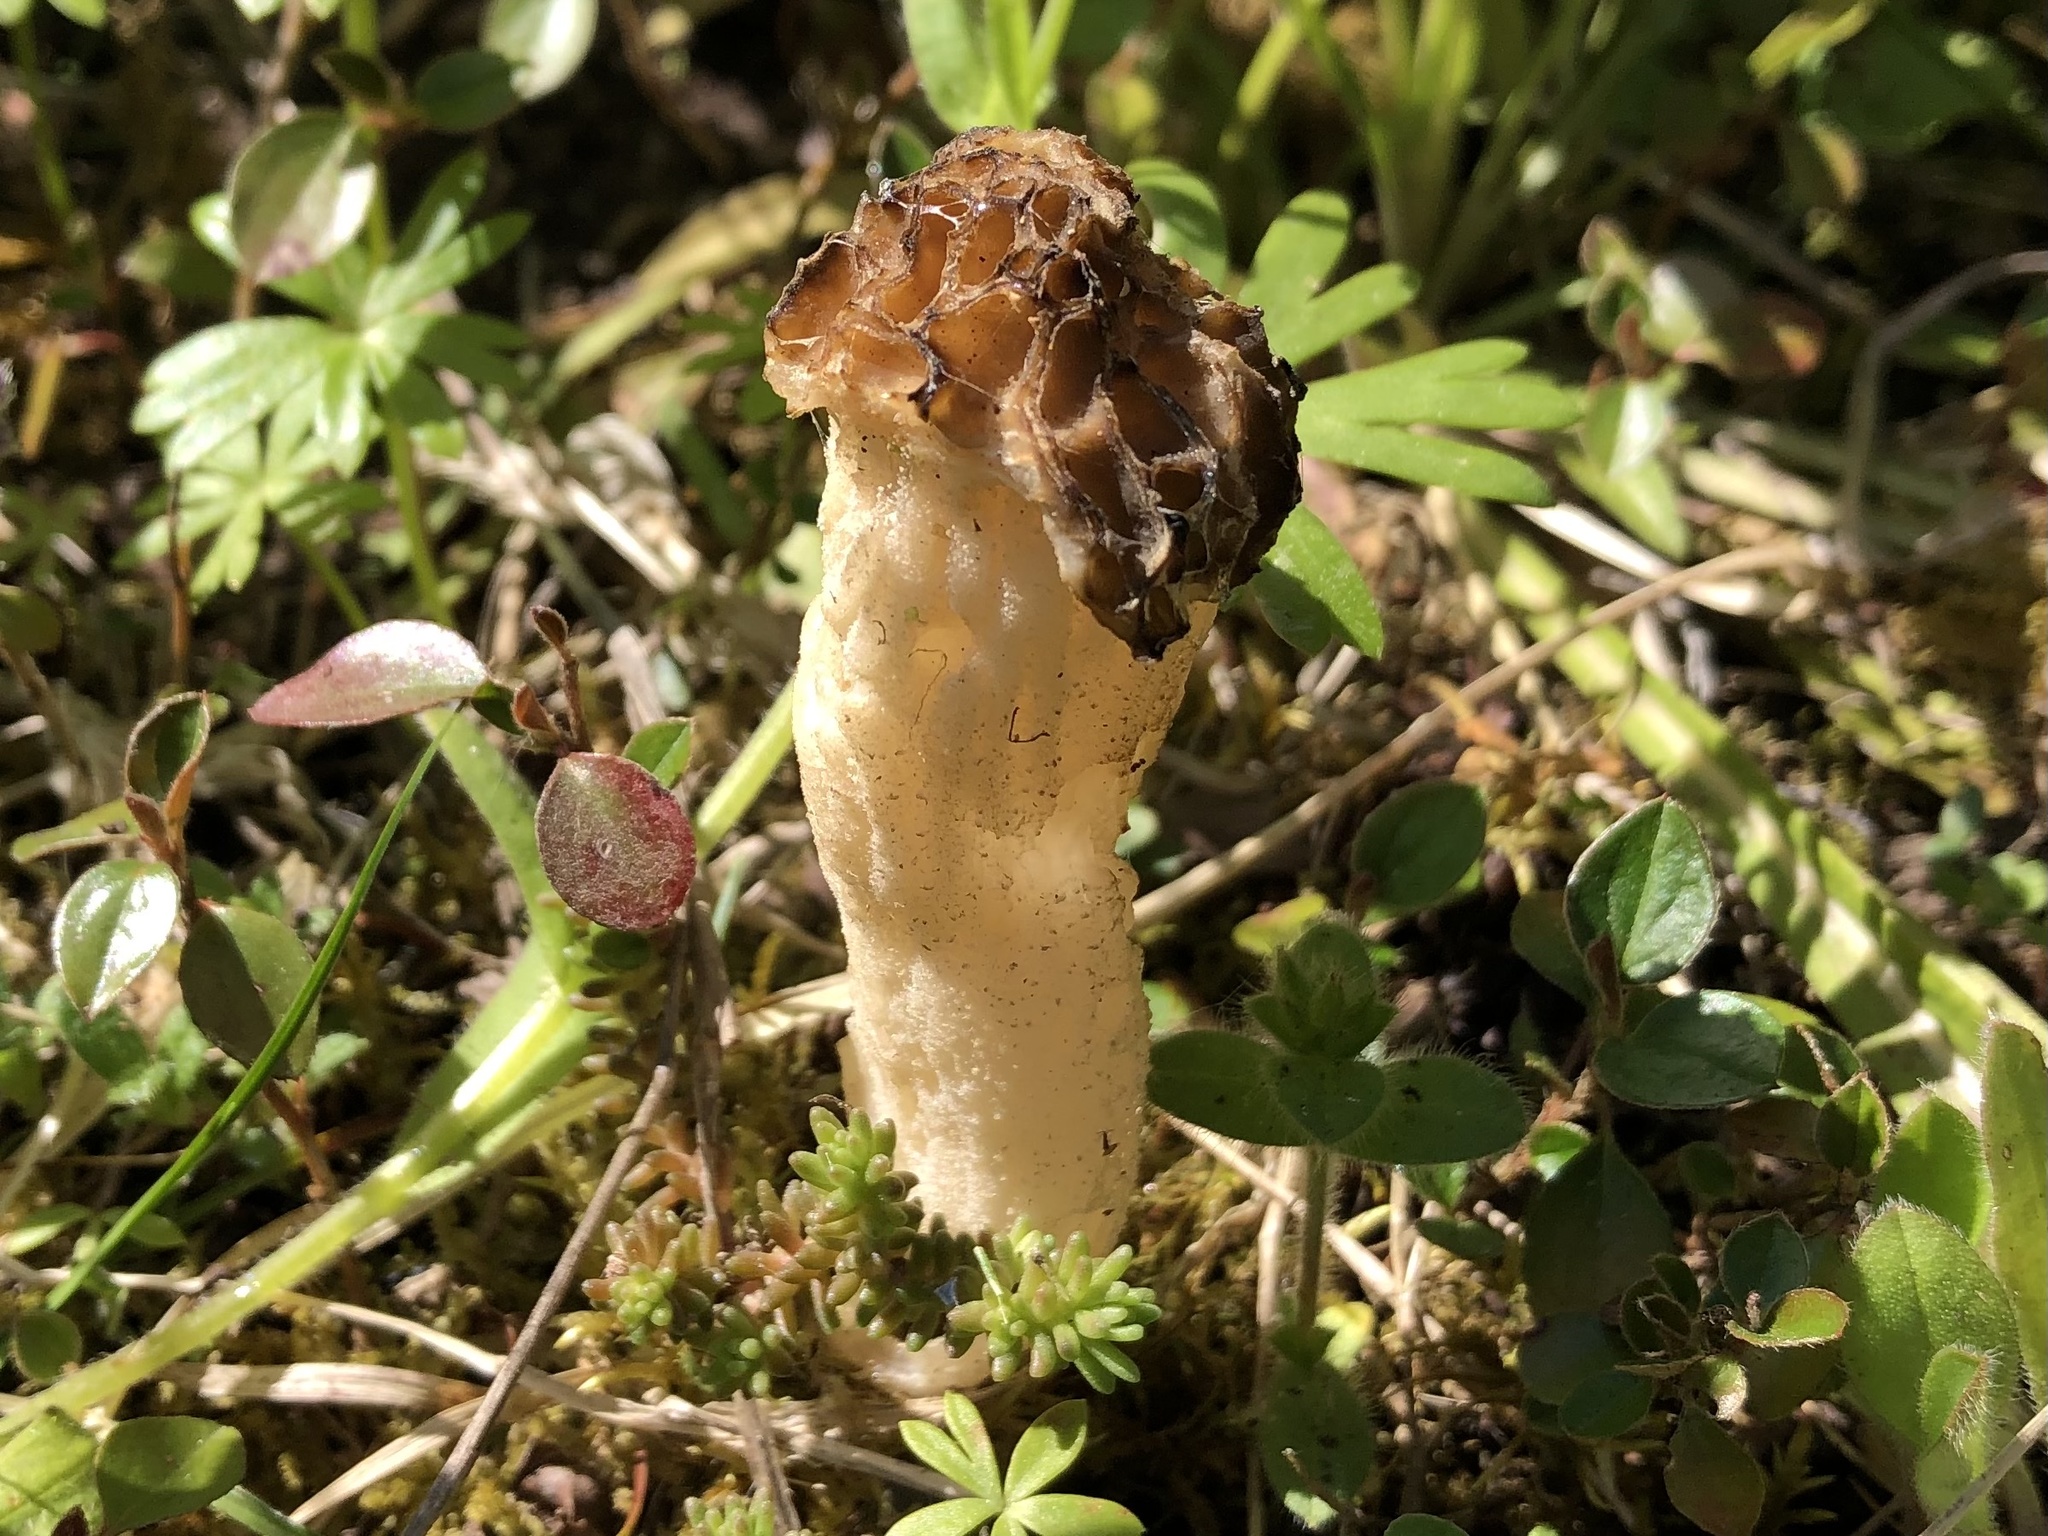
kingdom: Fungi
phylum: Ascomycota
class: Pezizomycetes
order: Pezizales
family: Morchellaceae
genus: Morchella
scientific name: Morchella semilibera
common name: Semifree morel
